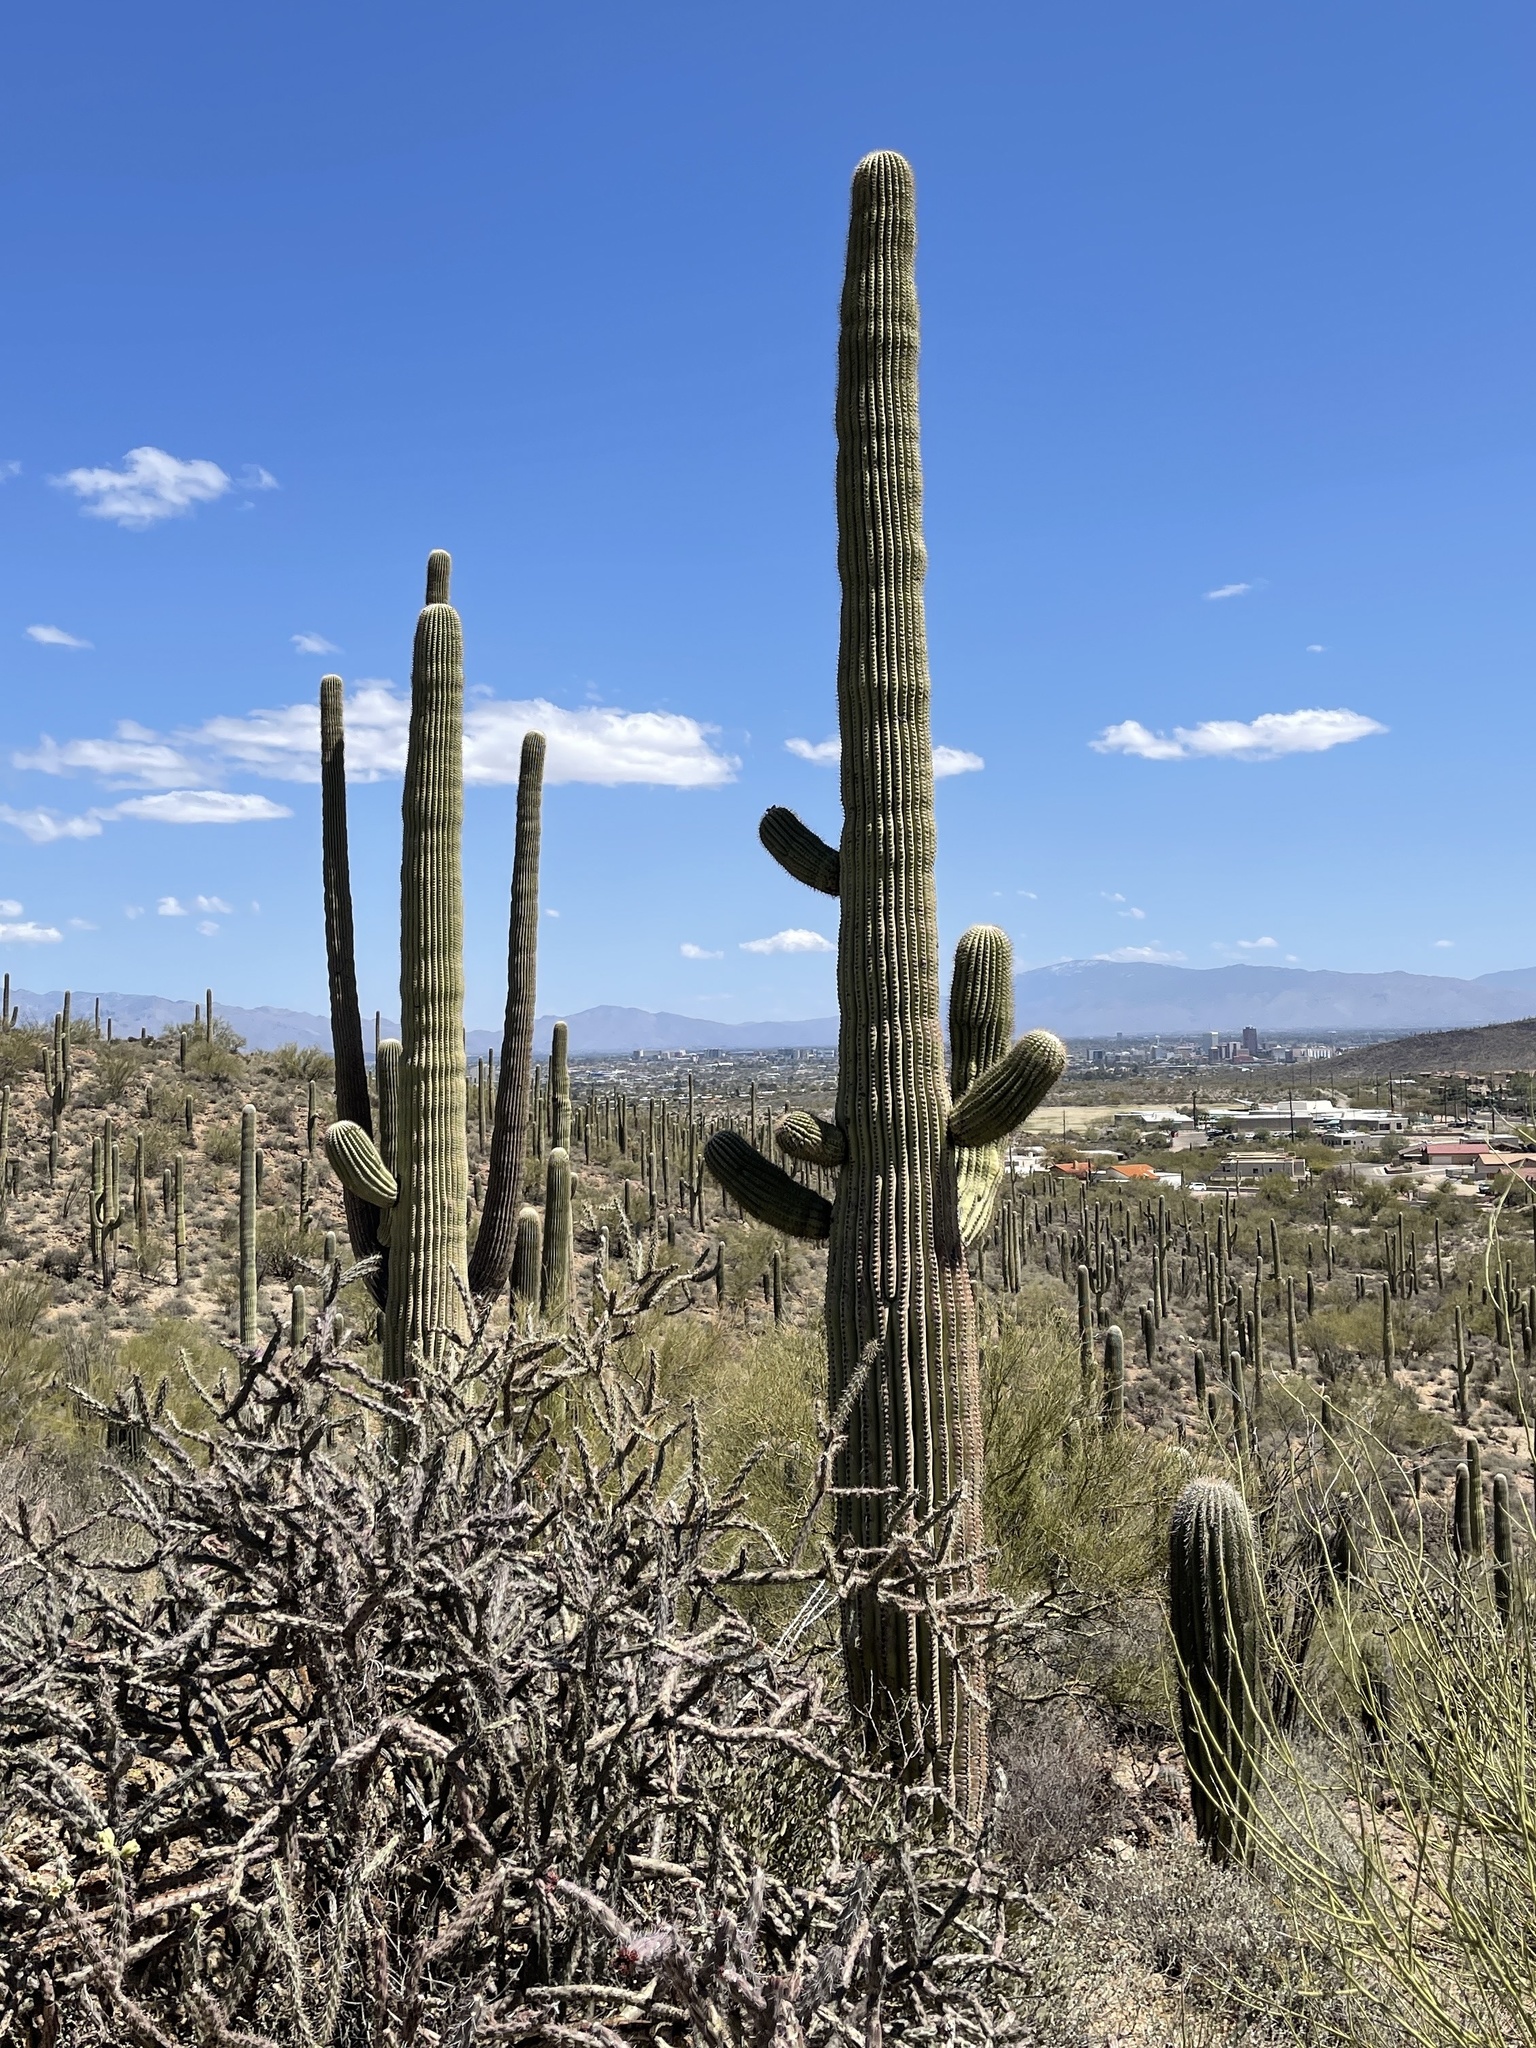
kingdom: Plantae
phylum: Tracheophyta
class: Magnoliopsida
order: Caryophyllales
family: Cactaceae
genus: Carnegiea
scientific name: Carnegiea gigantea
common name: Saguaro
